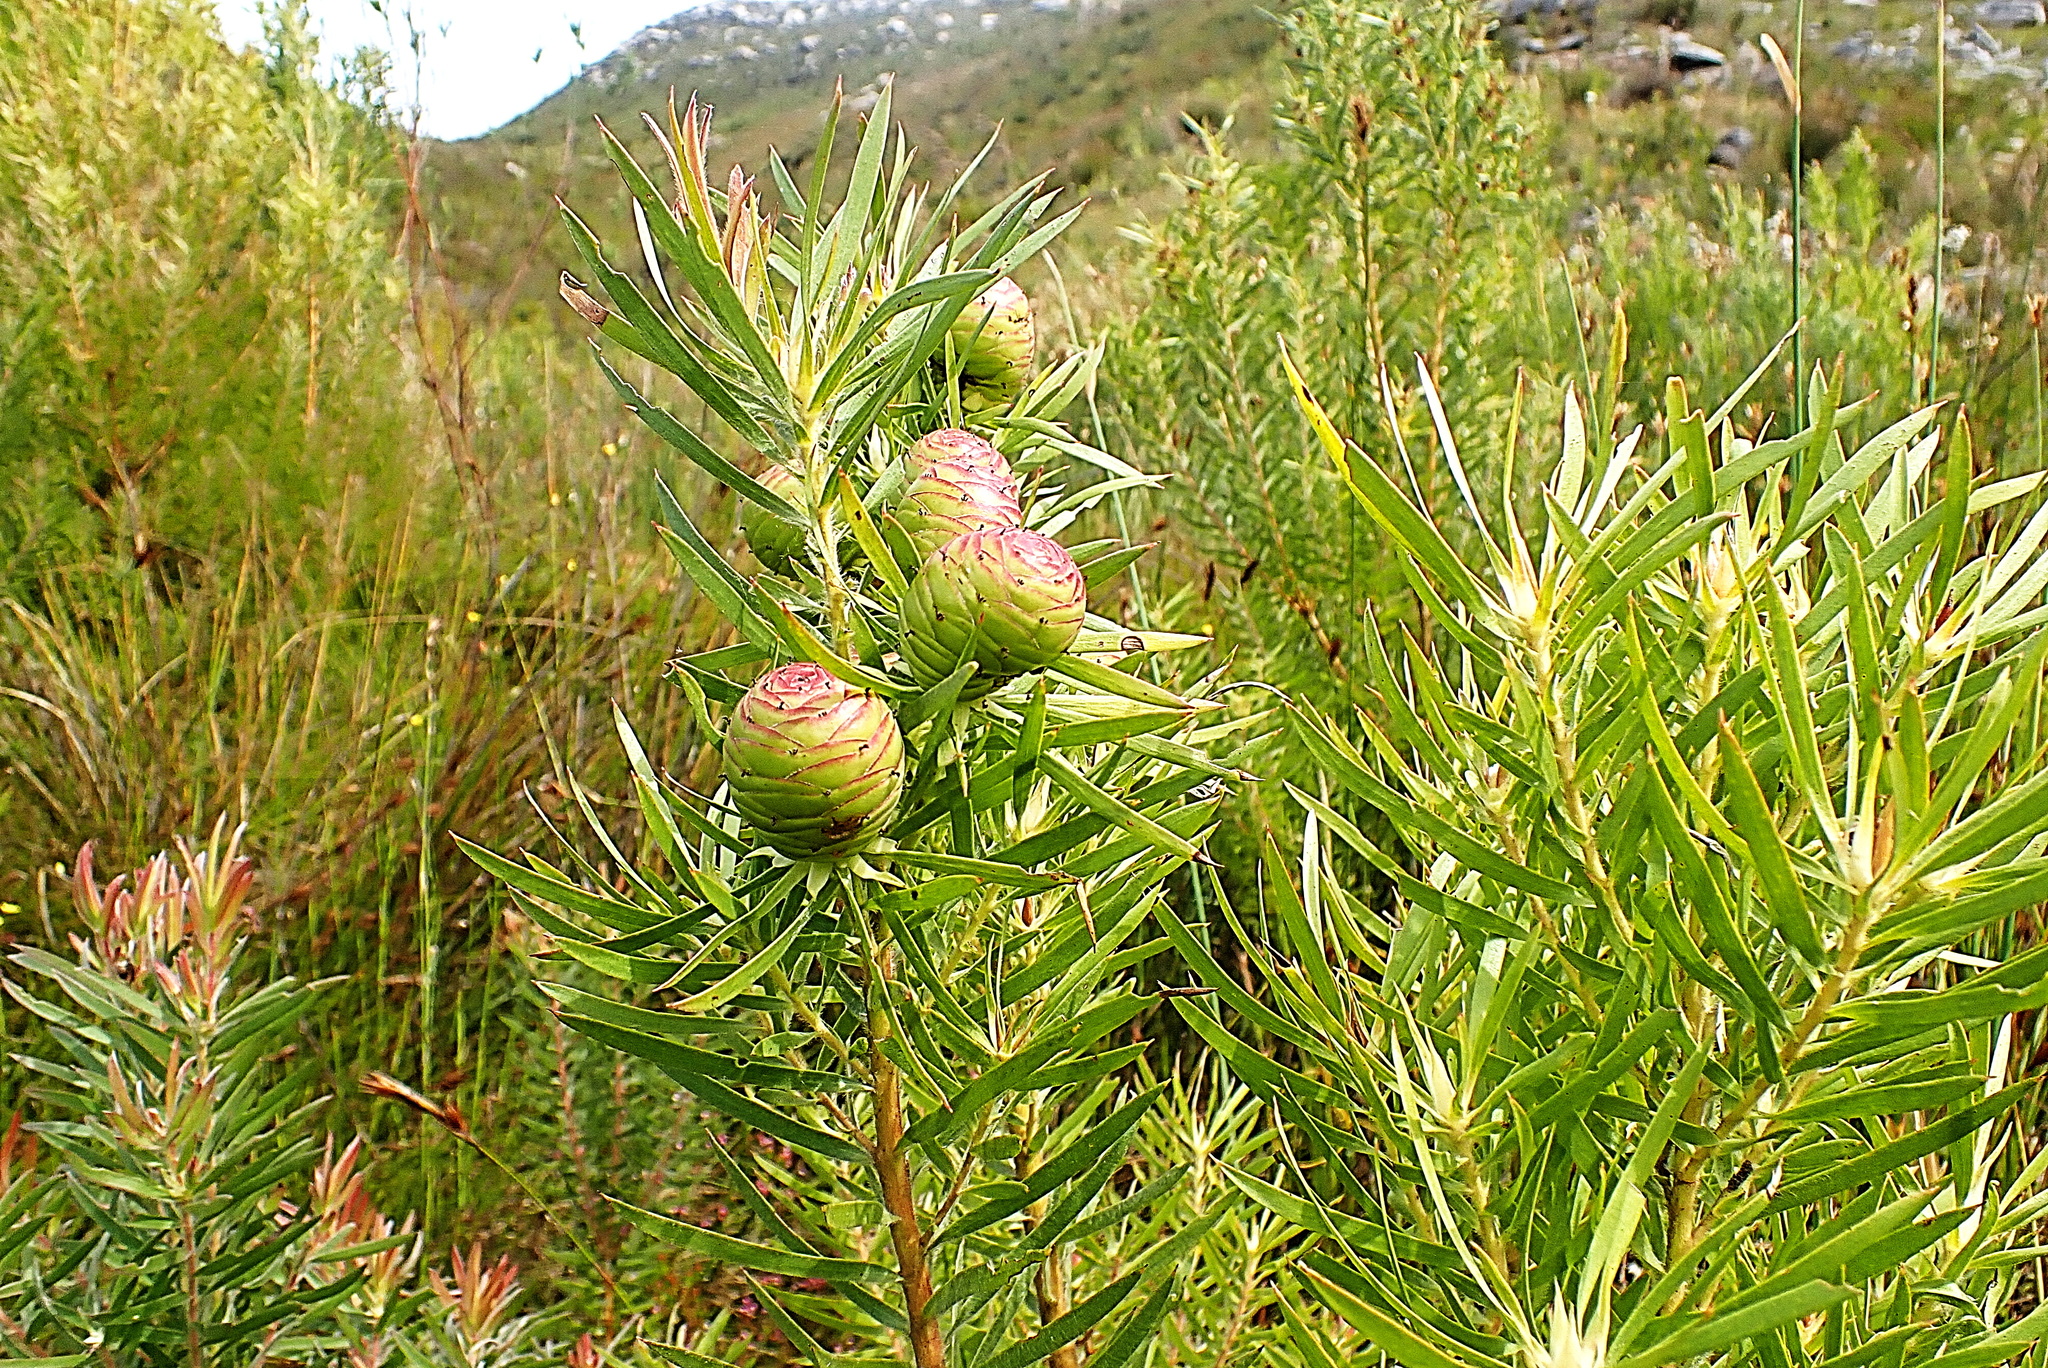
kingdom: Plantae
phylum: Tracheophyta
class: Magnoliopsida
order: Proteales
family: Proteaceae
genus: Leucadendron
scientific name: Leucadendron salicifolium
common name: Common stream conebush
